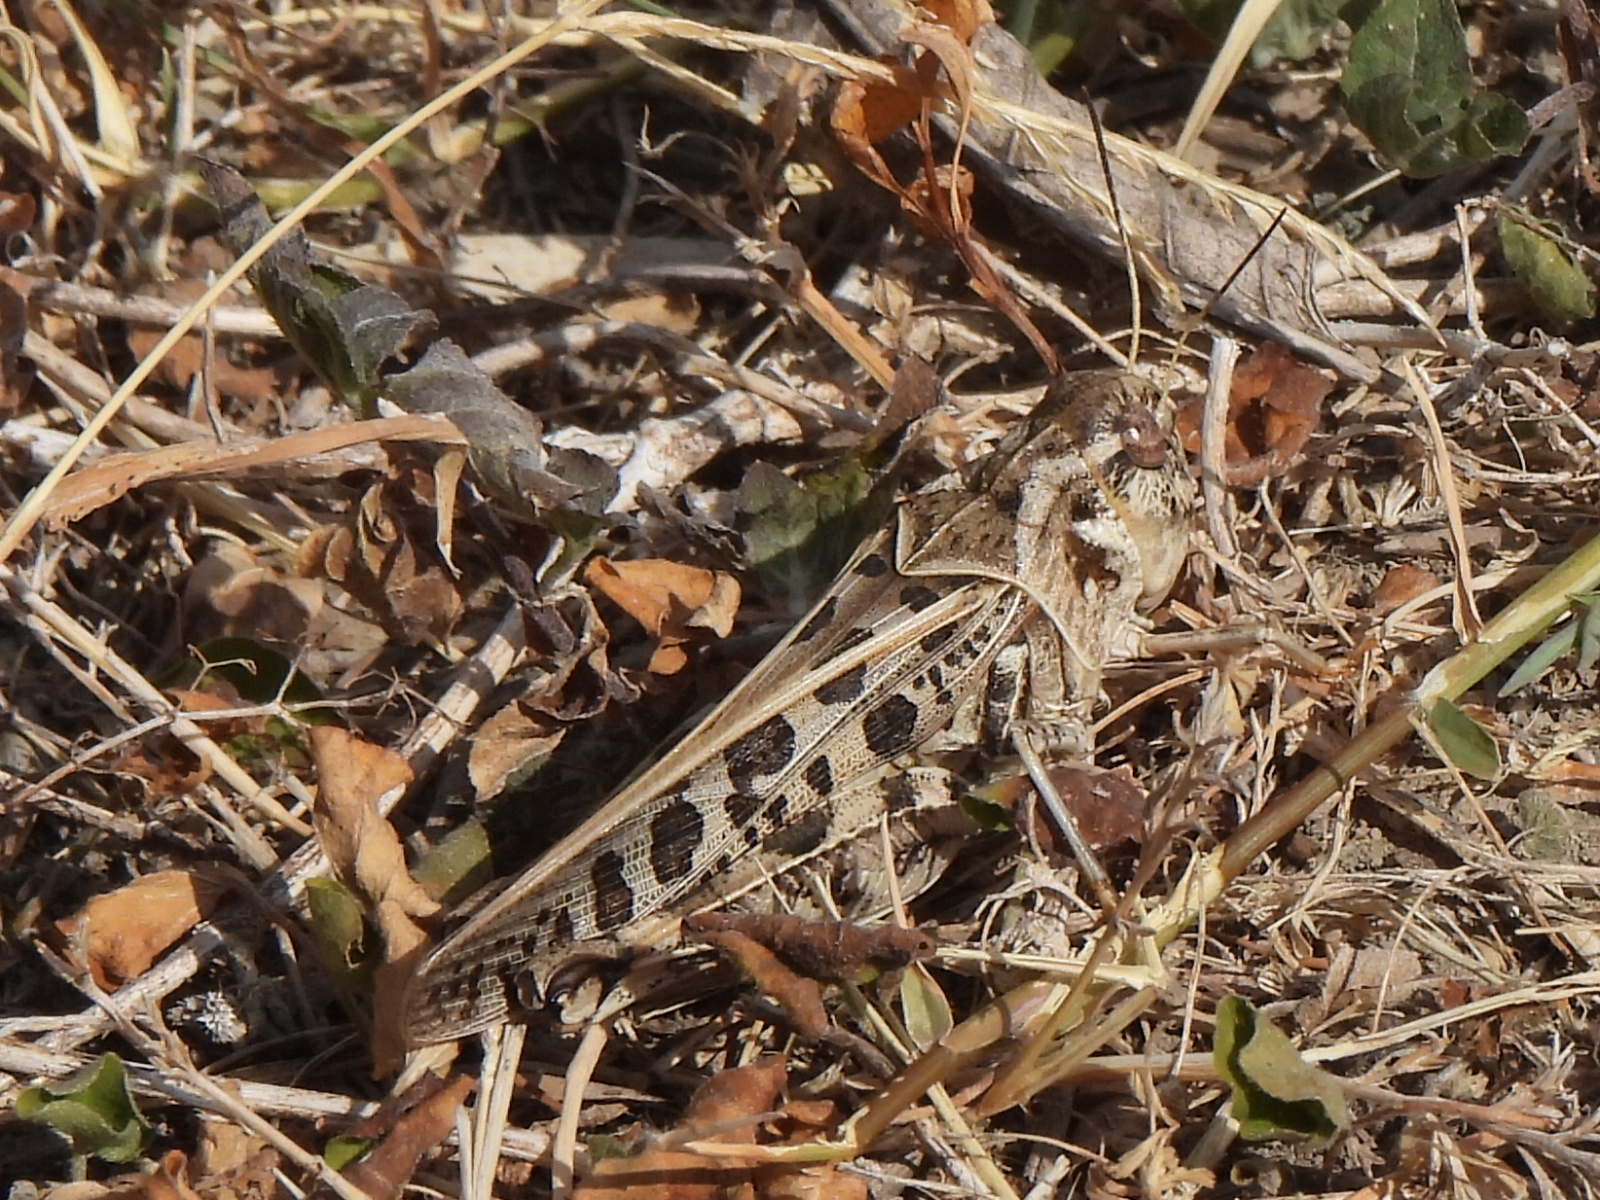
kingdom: Animalia
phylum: Arthropoda
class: Insecta
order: Orthoptera
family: Acrididae
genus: Hippiscus
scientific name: Hippiscus ocelote
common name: Wrinkled grasshopper
